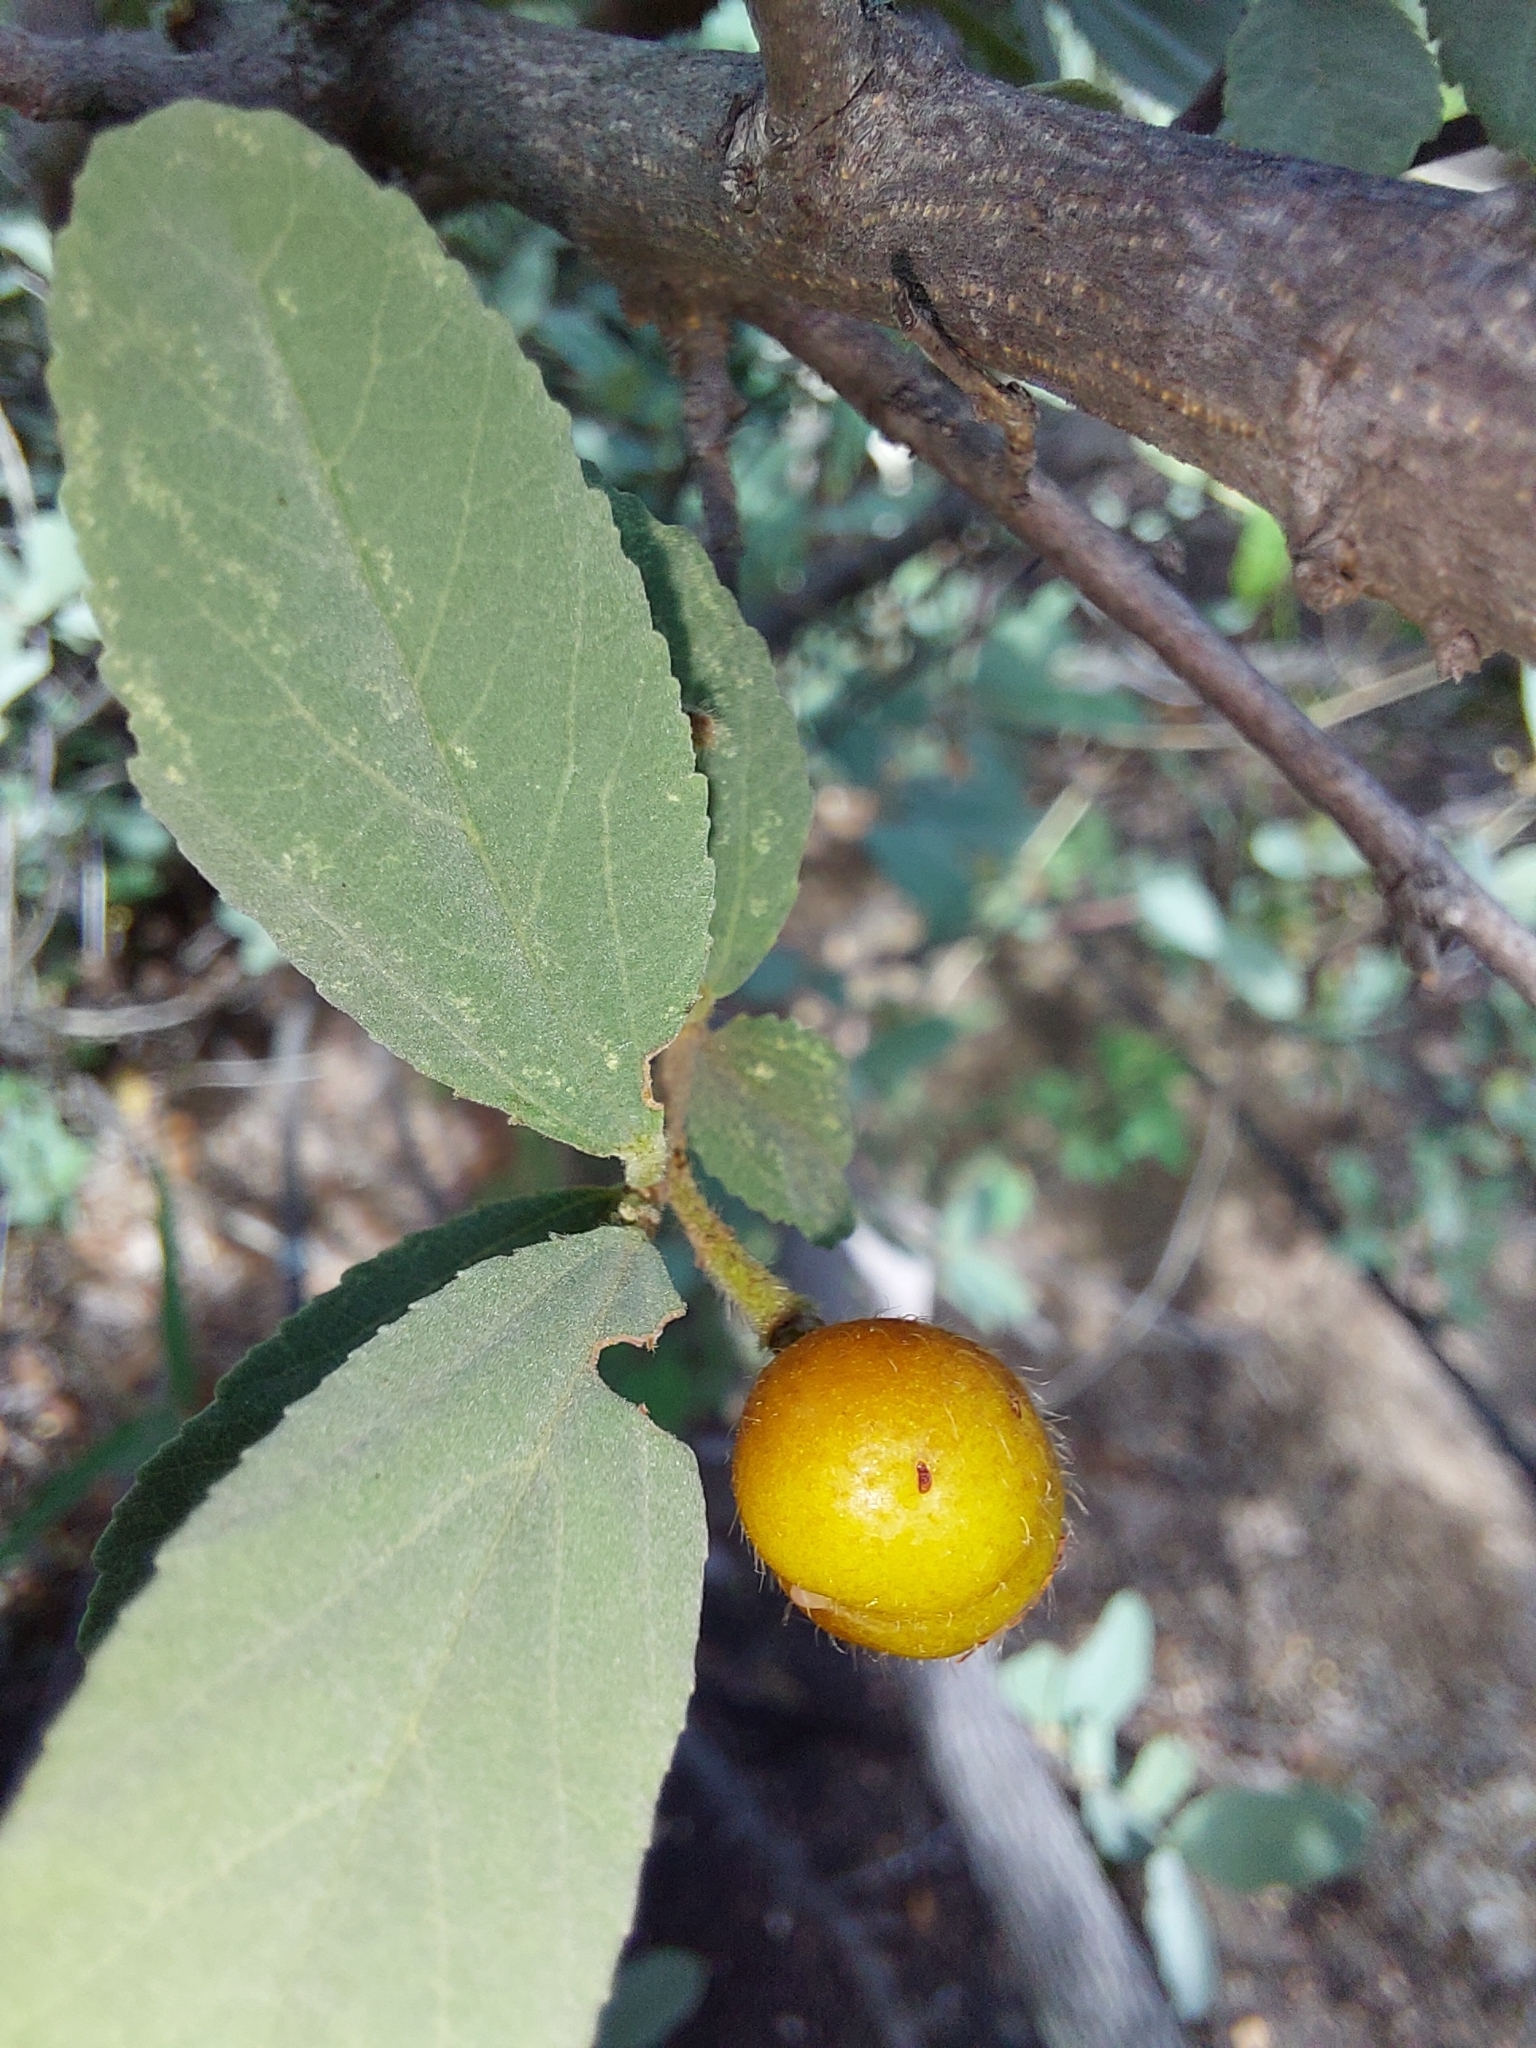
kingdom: Plantae
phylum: Tracheophyta
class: Magnoliopsida
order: Malvales
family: Malvaceae
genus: Grewia
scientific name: Grewia flava
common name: Brandy bush
